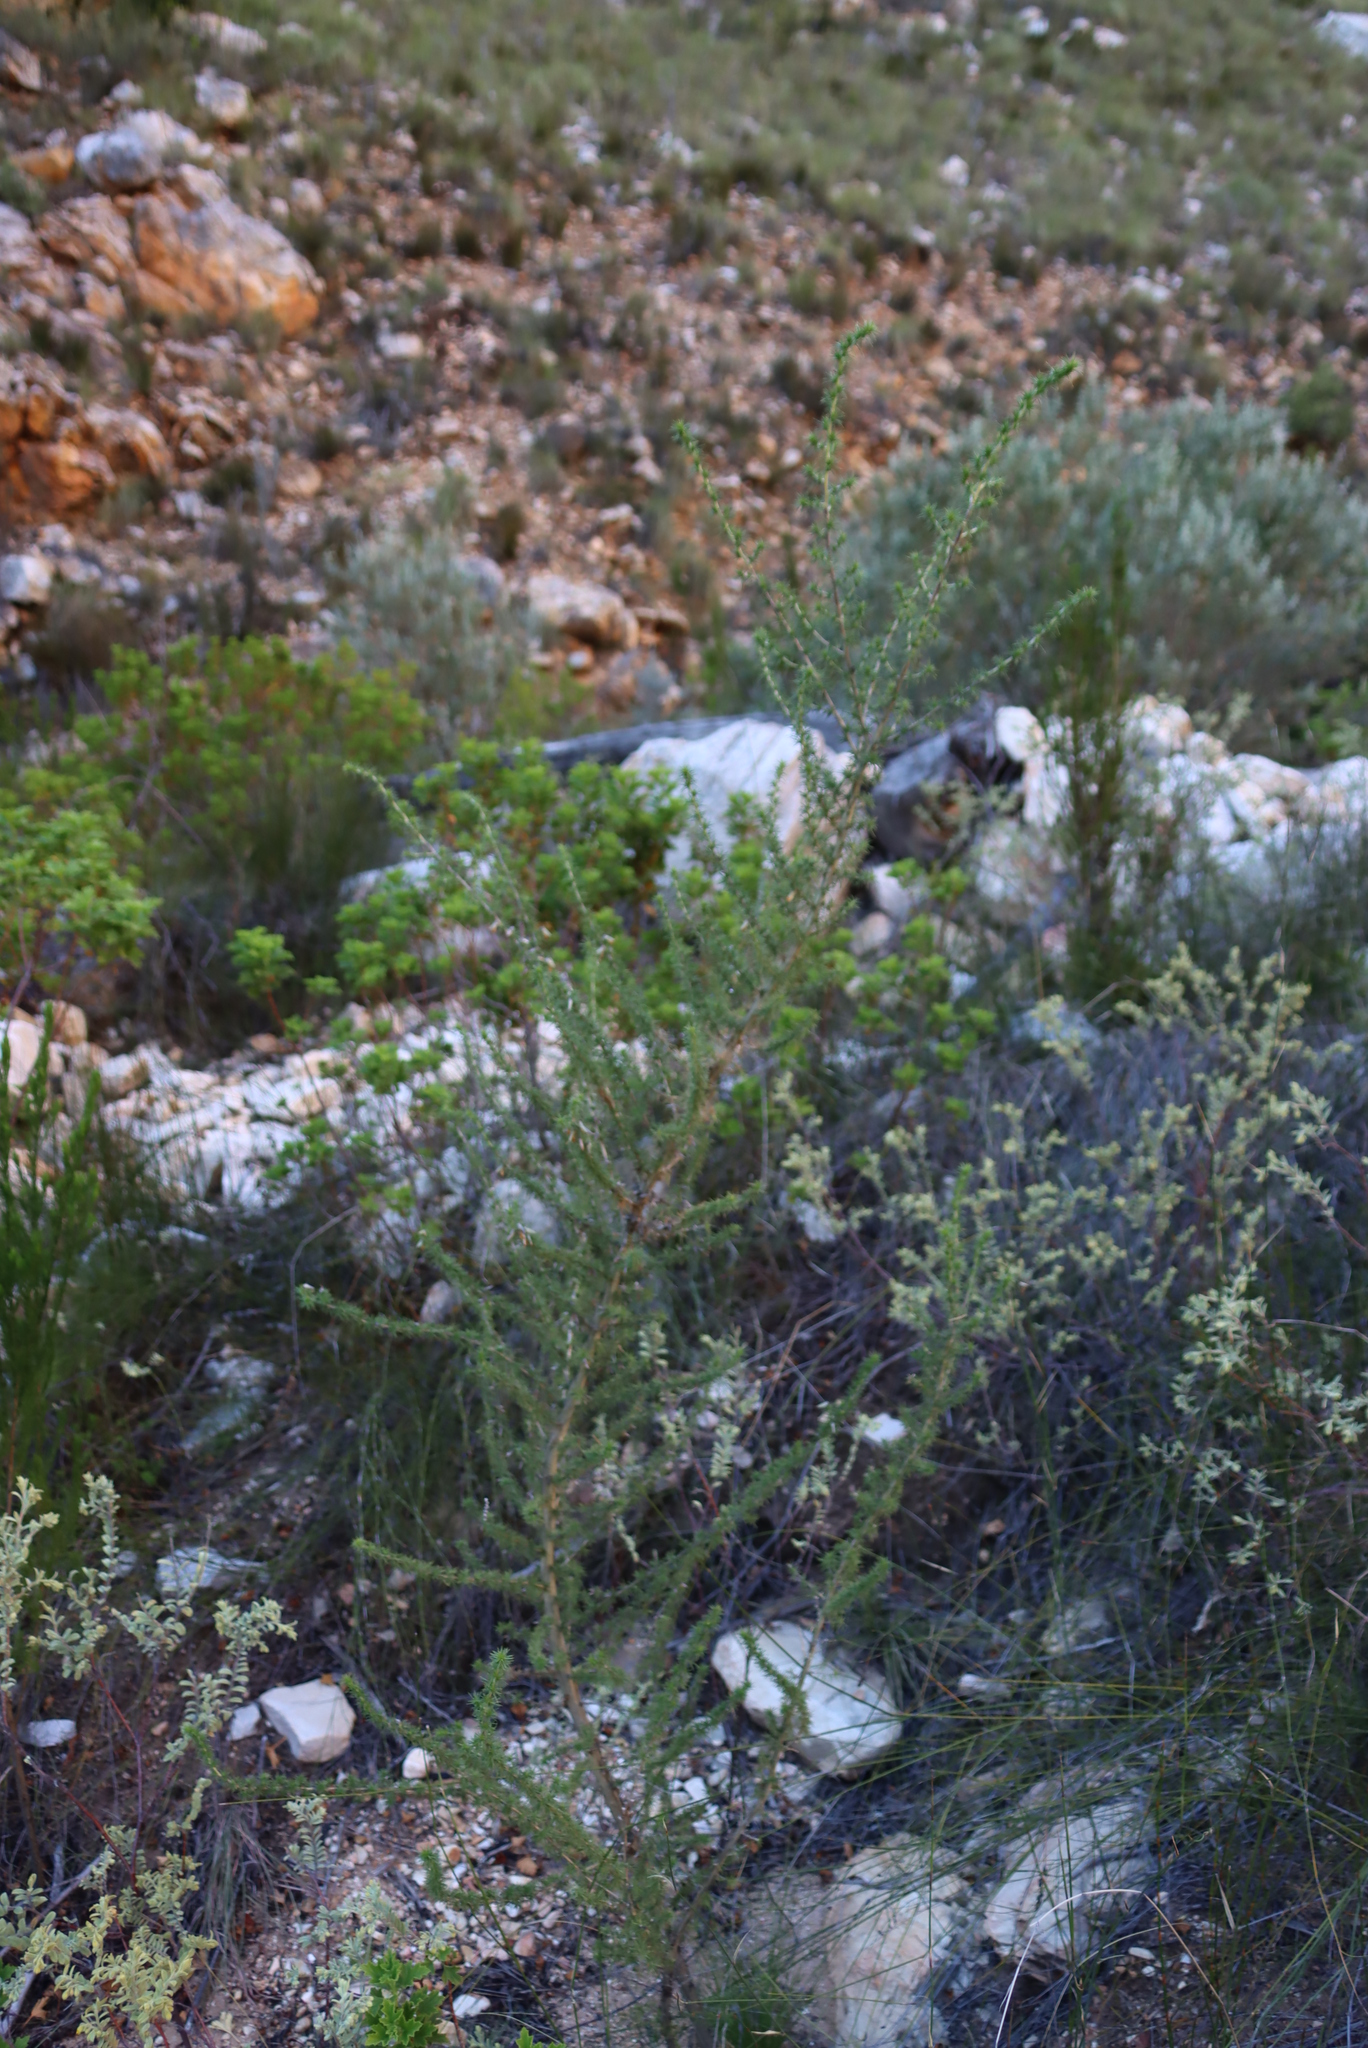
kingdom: Plantae
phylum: Tracheophyta
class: Magnoliopsida
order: Fabales
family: Fabaceae
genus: Aspalathus
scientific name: Aspalathus hirta
